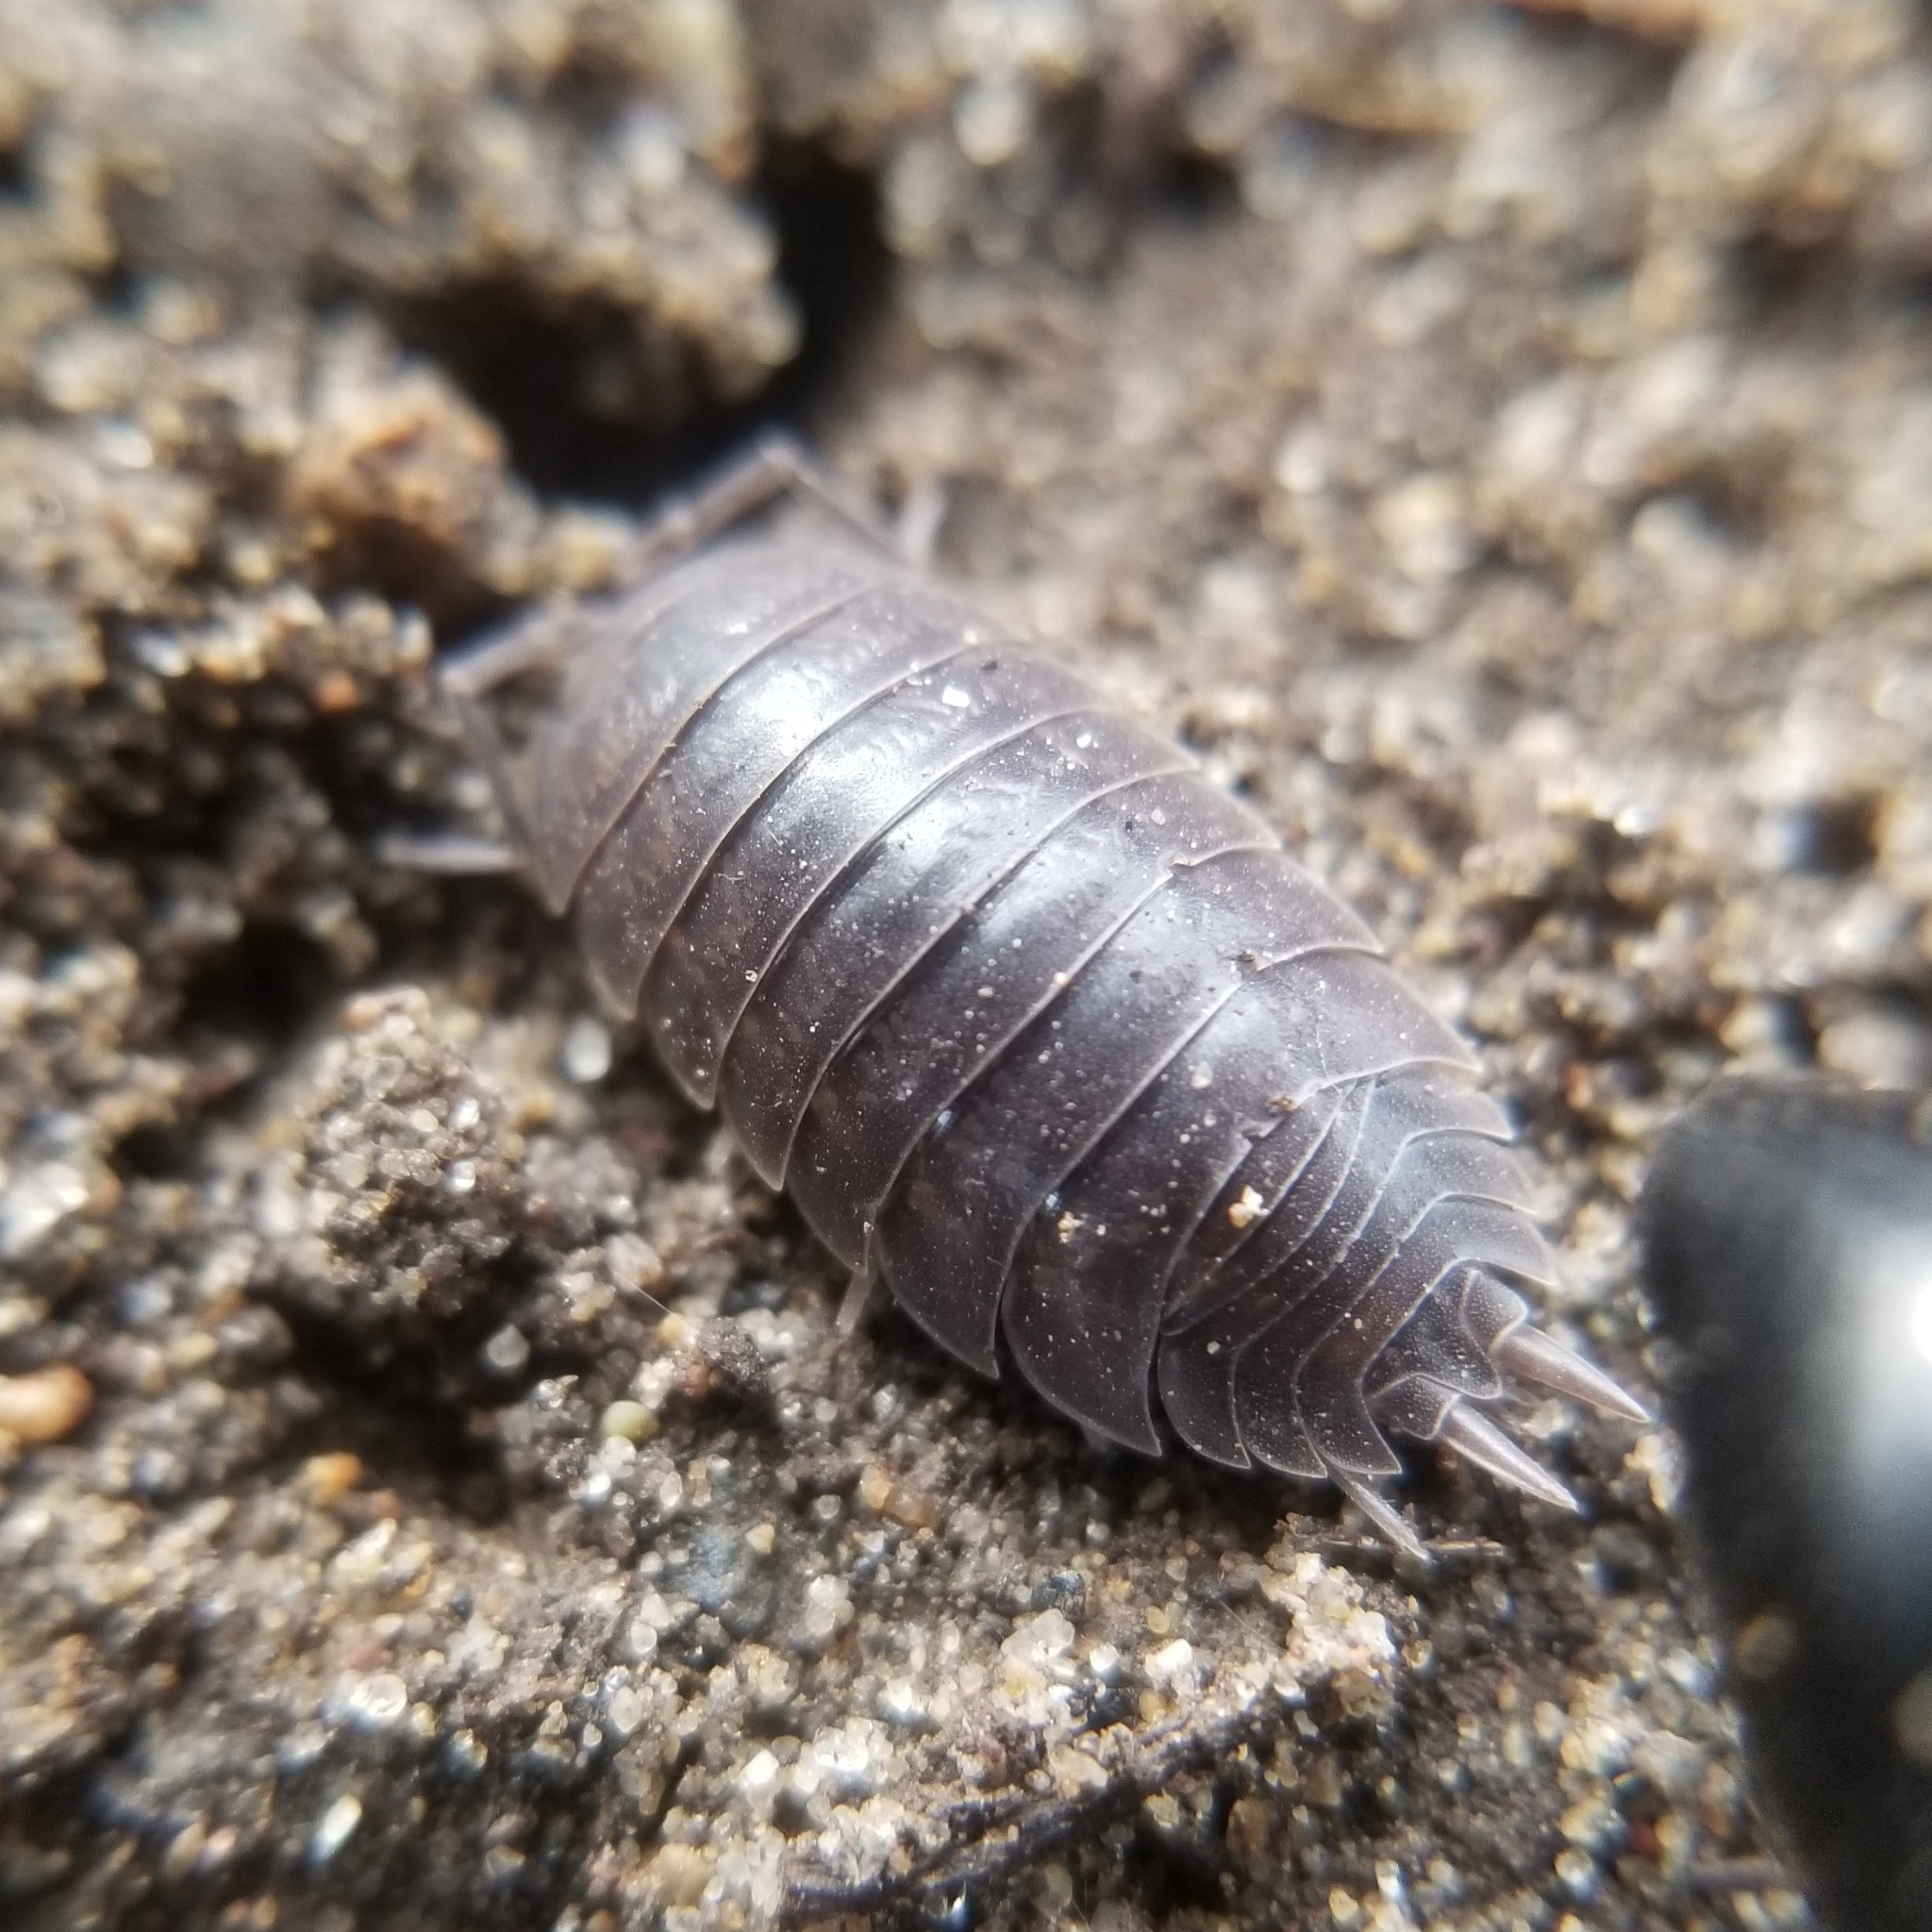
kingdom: Animalia
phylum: Arthropoda
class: Malacostraca
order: Isopoda
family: Porcellionidae
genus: Porcellio
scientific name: Porcellio laevis
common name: Swift woodlouse
